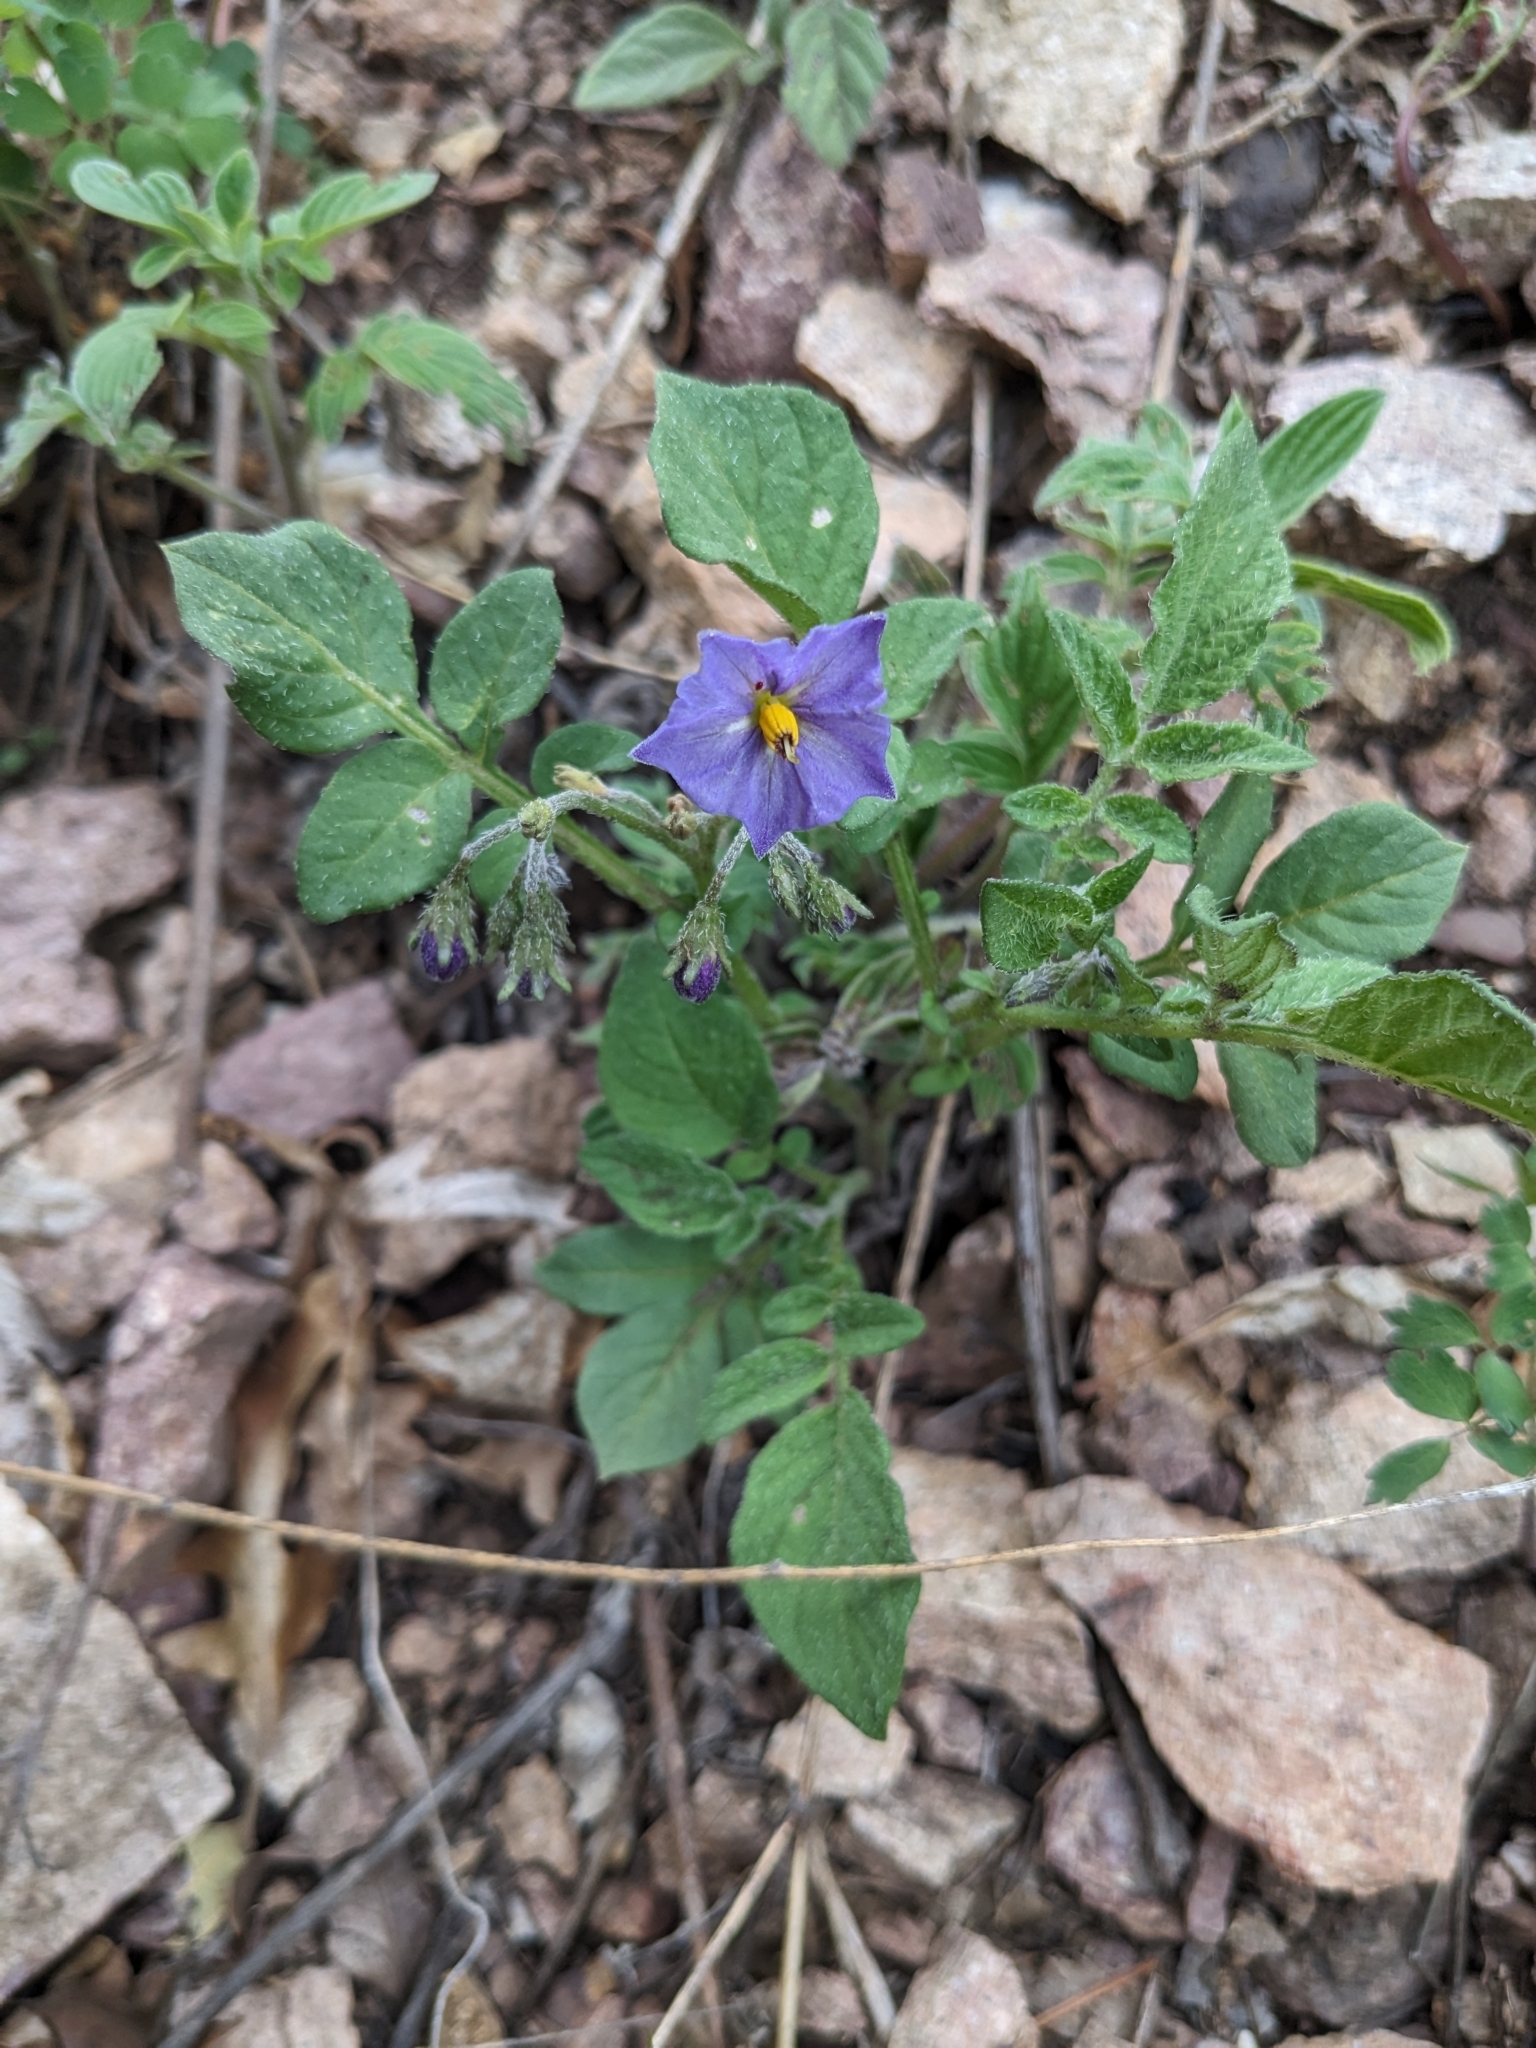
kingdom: Plantae
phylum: Tracheophyta
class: Magnoliopsida
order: Solanales
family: Solanaceae
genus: Solanum
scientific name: Solanum stoloniferum
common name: Fendler's nighshade
